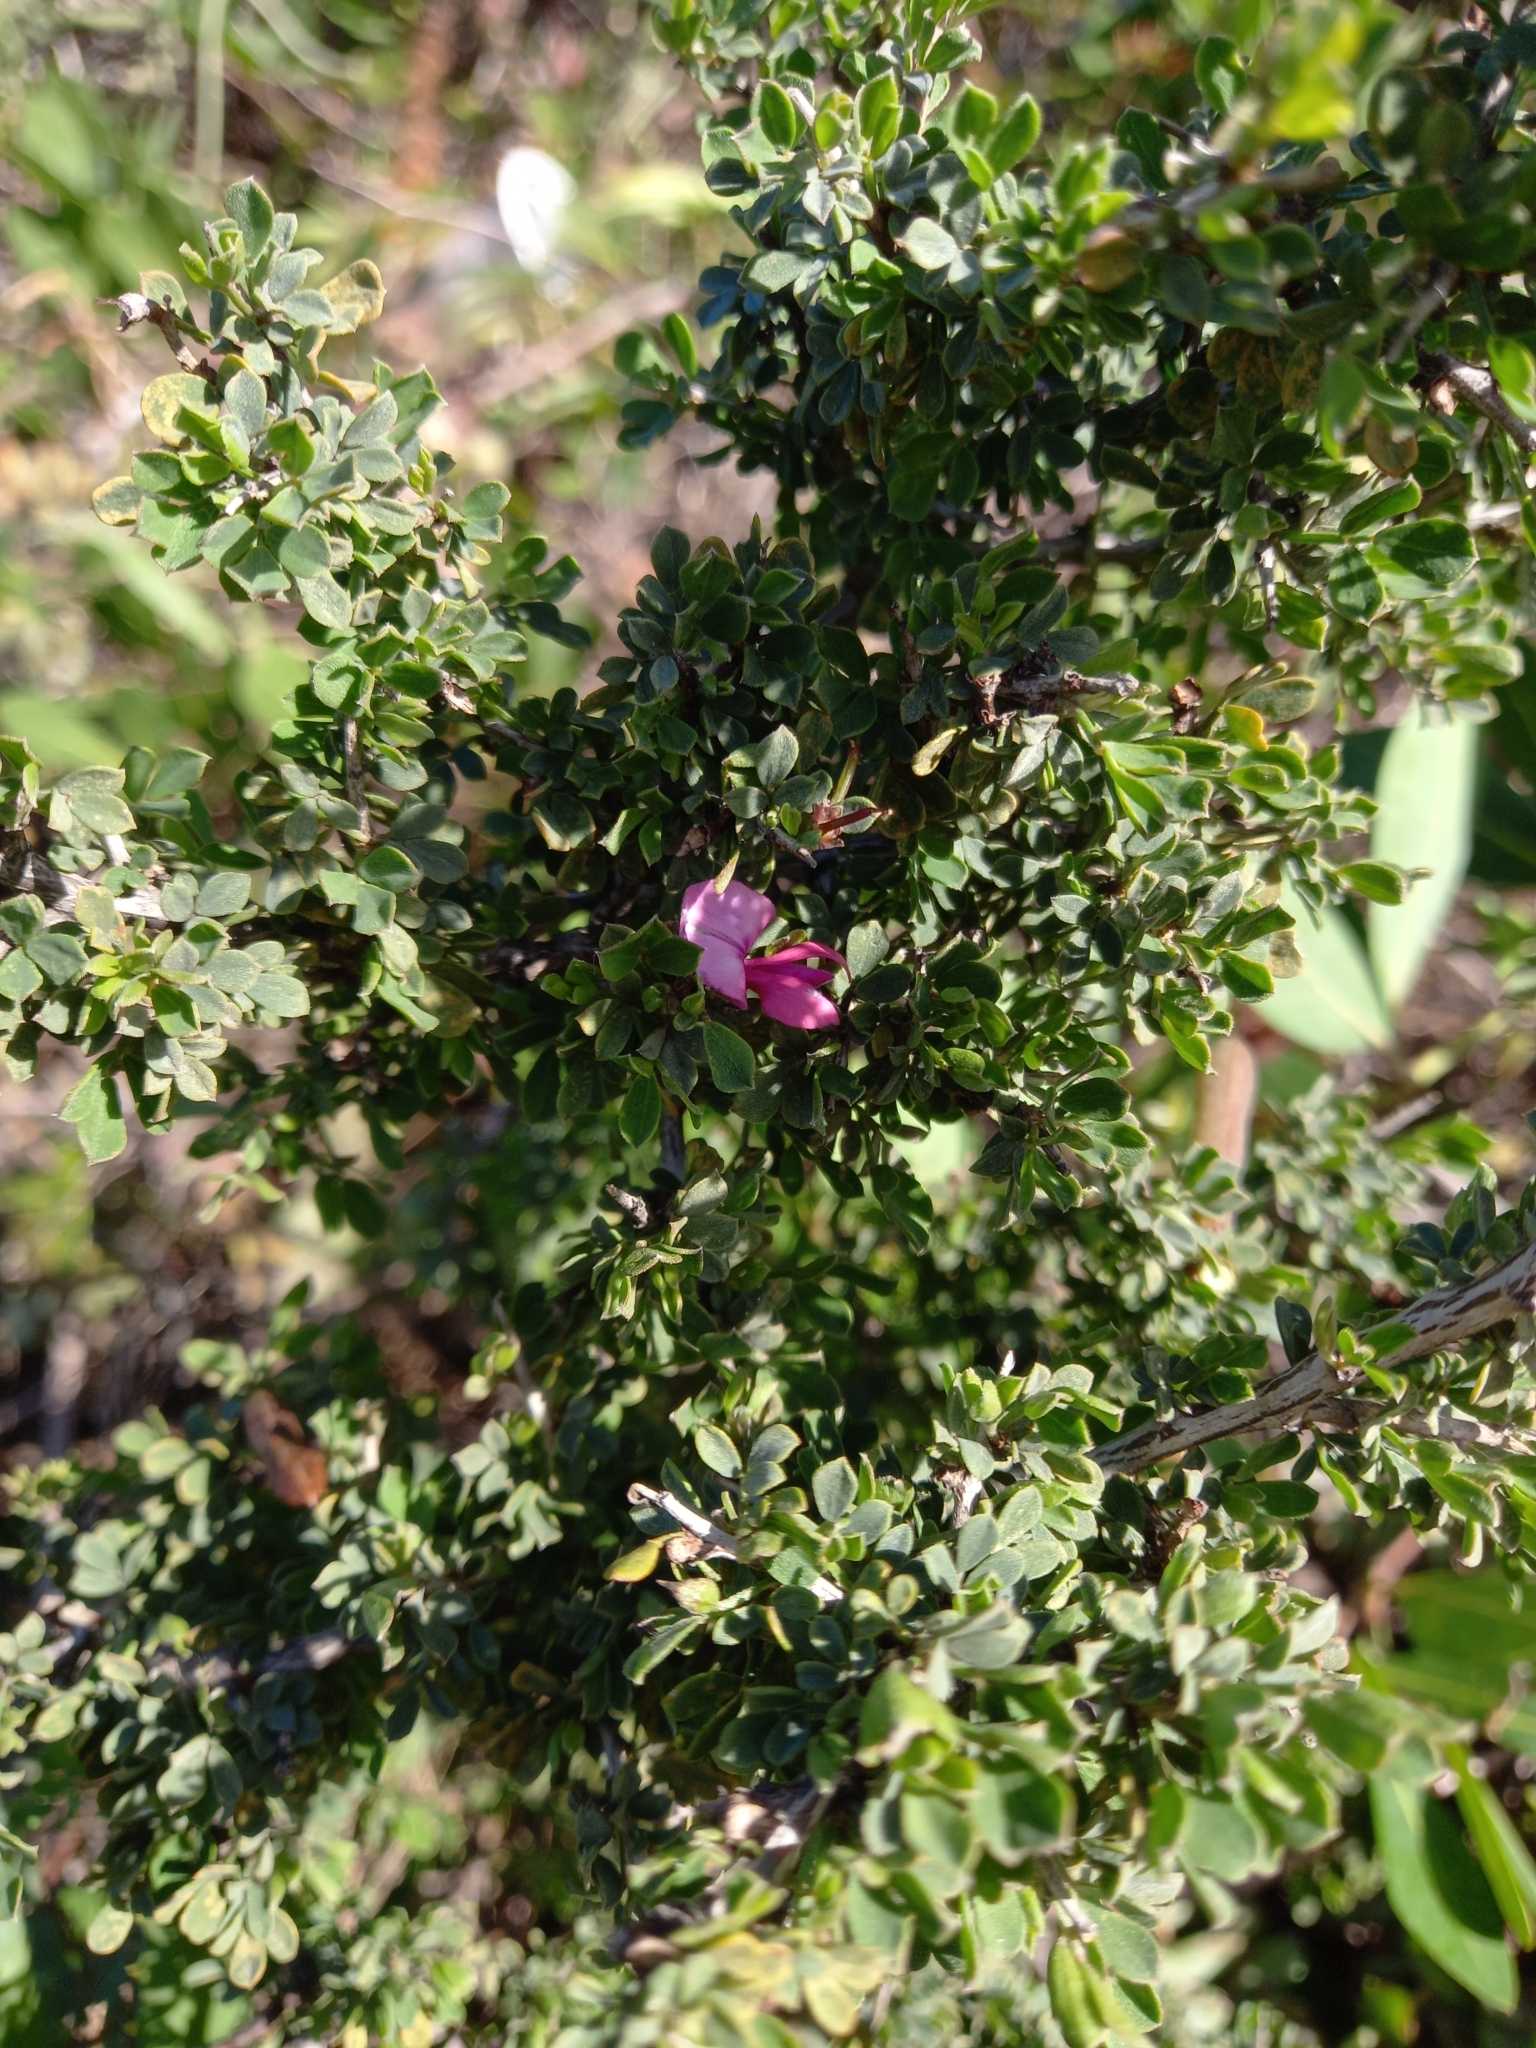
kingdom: Plantae
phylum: Tracheophyta
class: Magnoliopsida
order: Fabales
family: Fabaceae
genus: Indigofera
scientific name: Indigofera nigromontana
